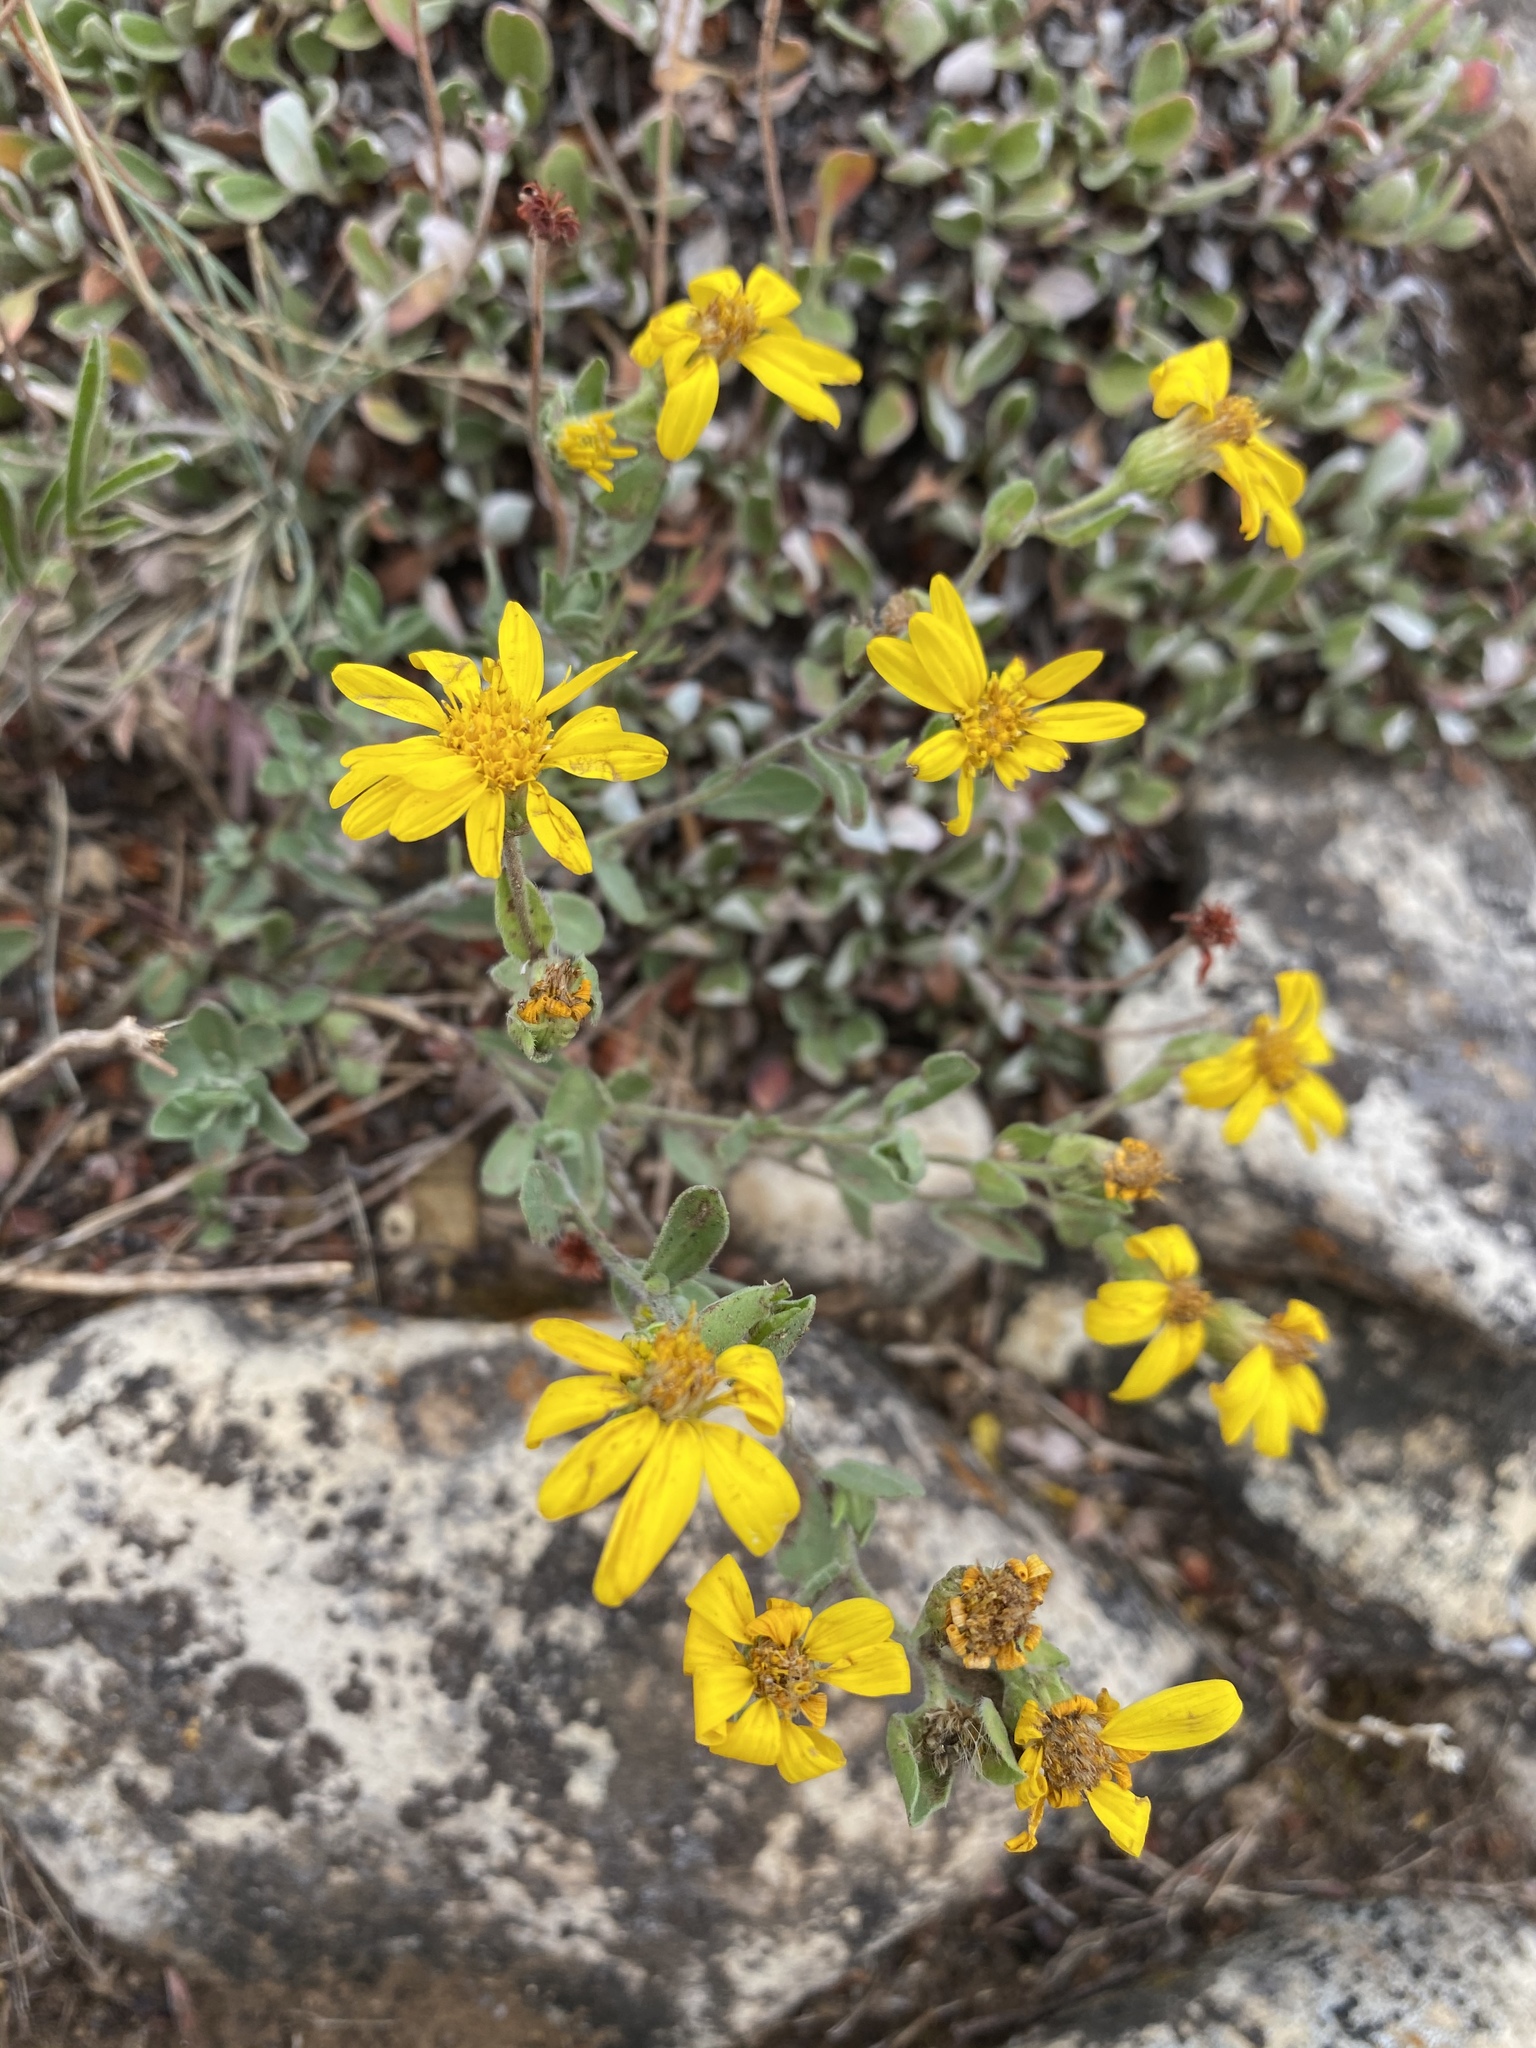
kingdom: Plantae
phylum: Tracheophyta
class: Magnoliopsida
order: Asterales
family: Asteraceae
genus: Heterotheca
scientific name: Heterotheca fulciens
